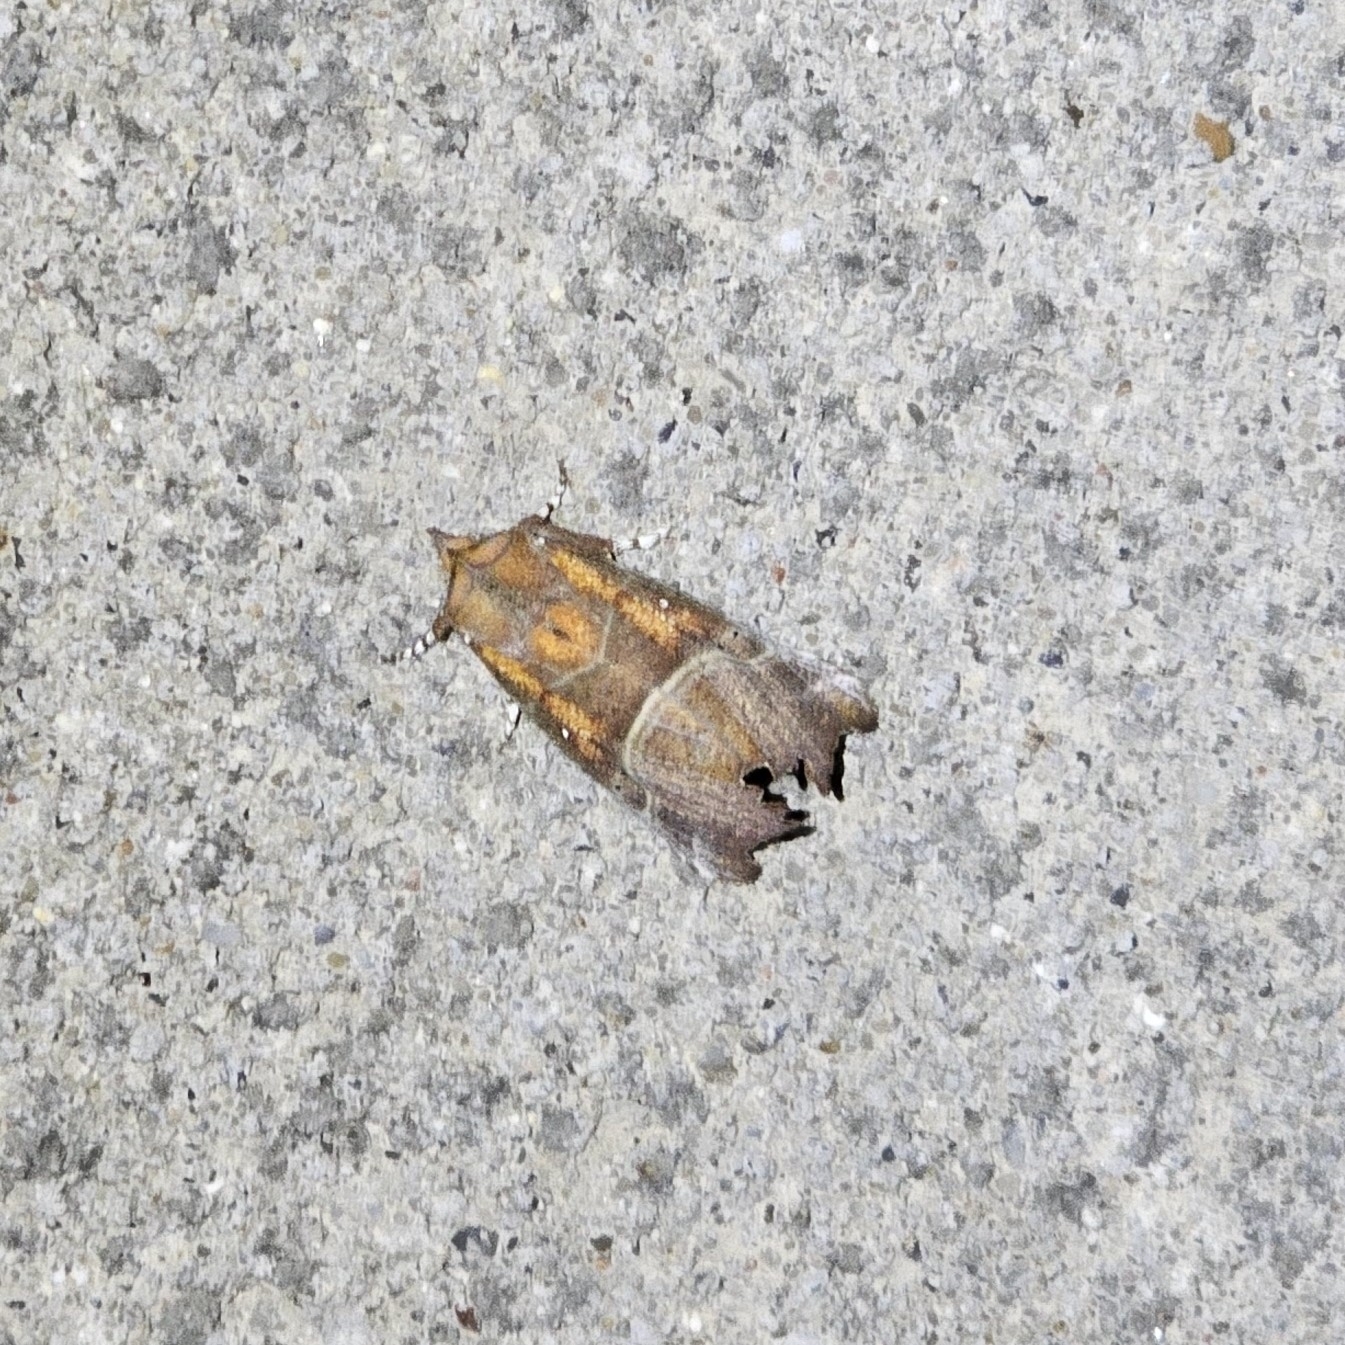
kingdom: Animalia
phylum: Arthropoda
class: Insecta
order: Lepidoptera
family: Erebidae
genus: Scoliopteryx
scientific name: Scoliopteryx libatrix
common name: Herald
